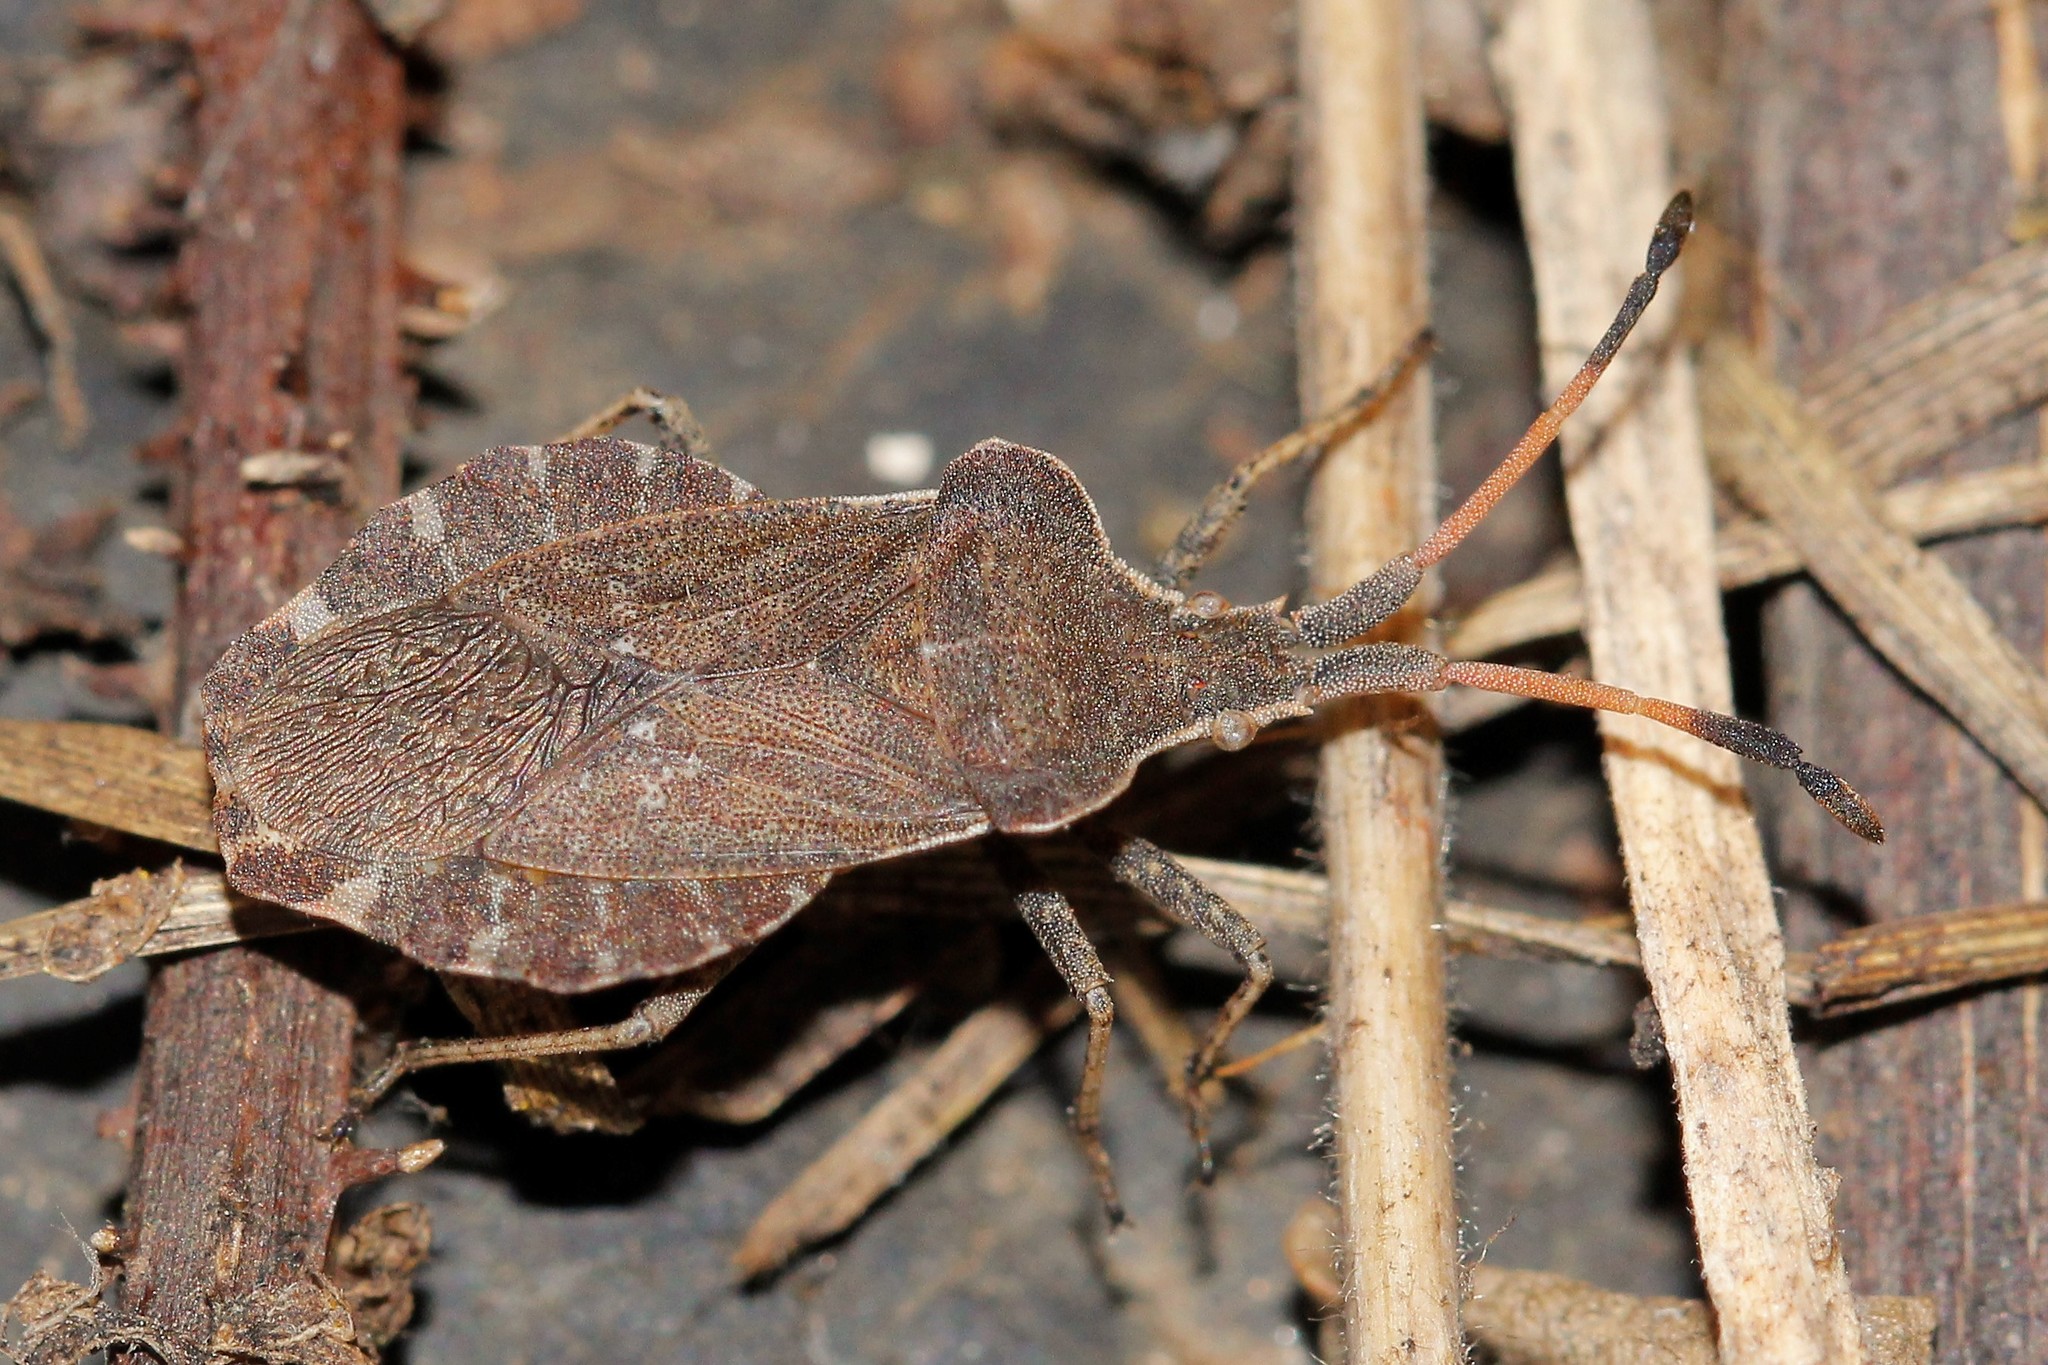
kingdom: Animalia
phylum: Arthropoda
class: Insecta
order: Hemiptera
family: Coreidae
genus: Enoplops
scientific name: Enoplops scapha
